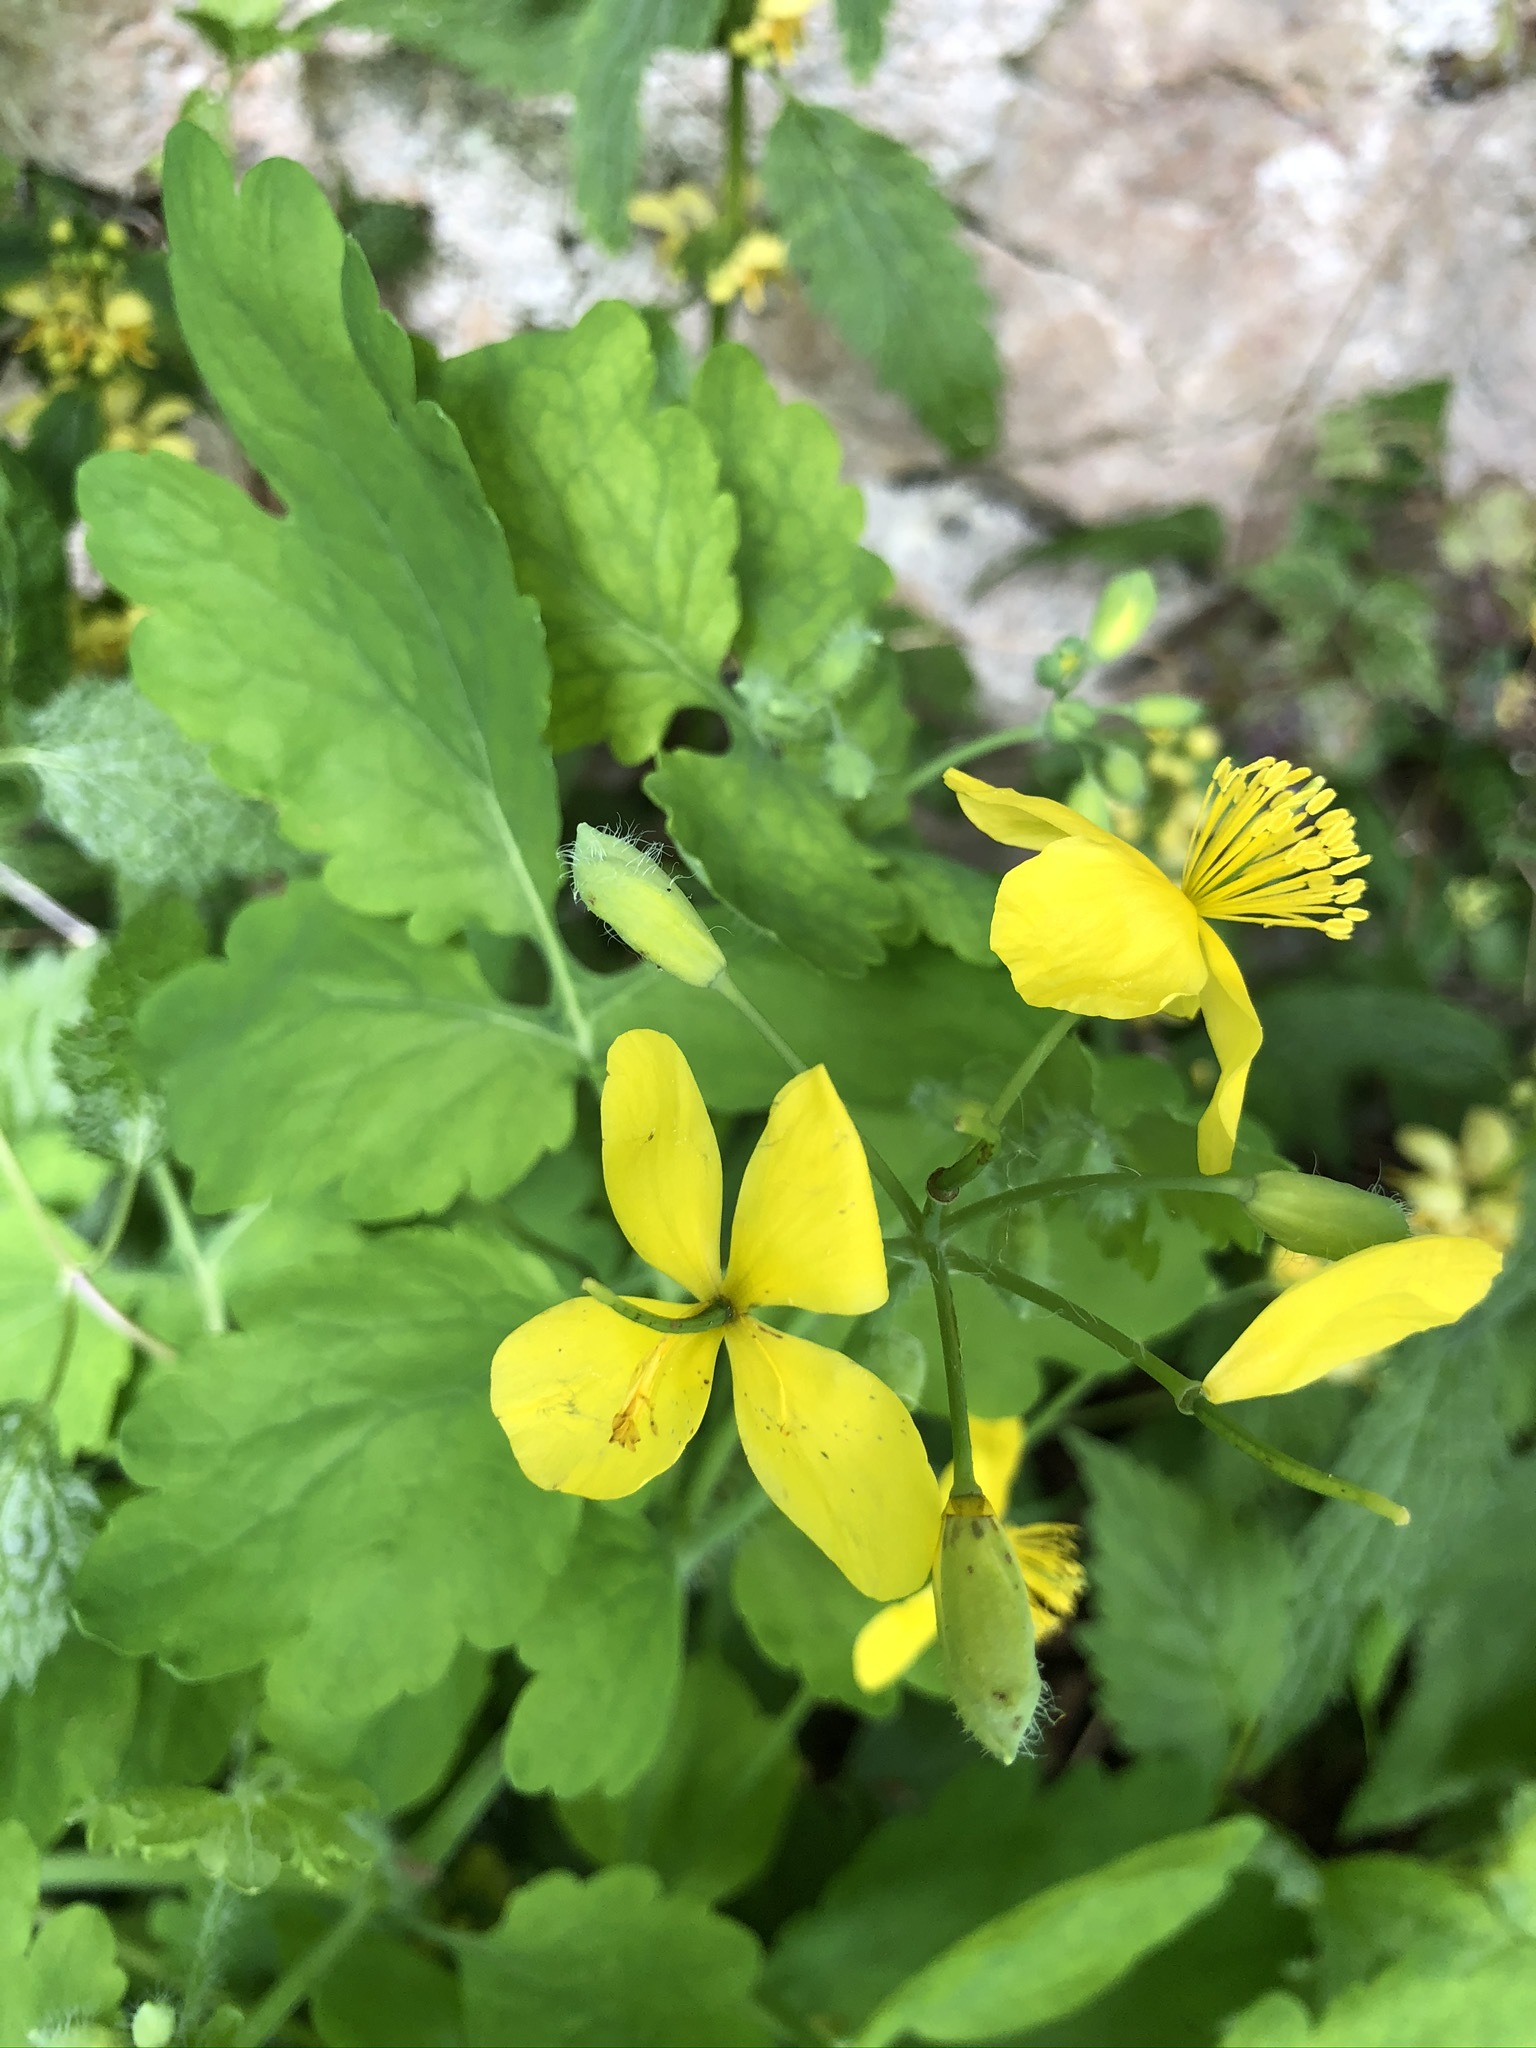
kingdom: Plantae
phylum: Tracheophyta
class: Magnoliopsida
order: Ranunculales
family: Papaveraceae
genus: Chelidonium
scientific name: Chelidonium majus
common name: Greater celandine
